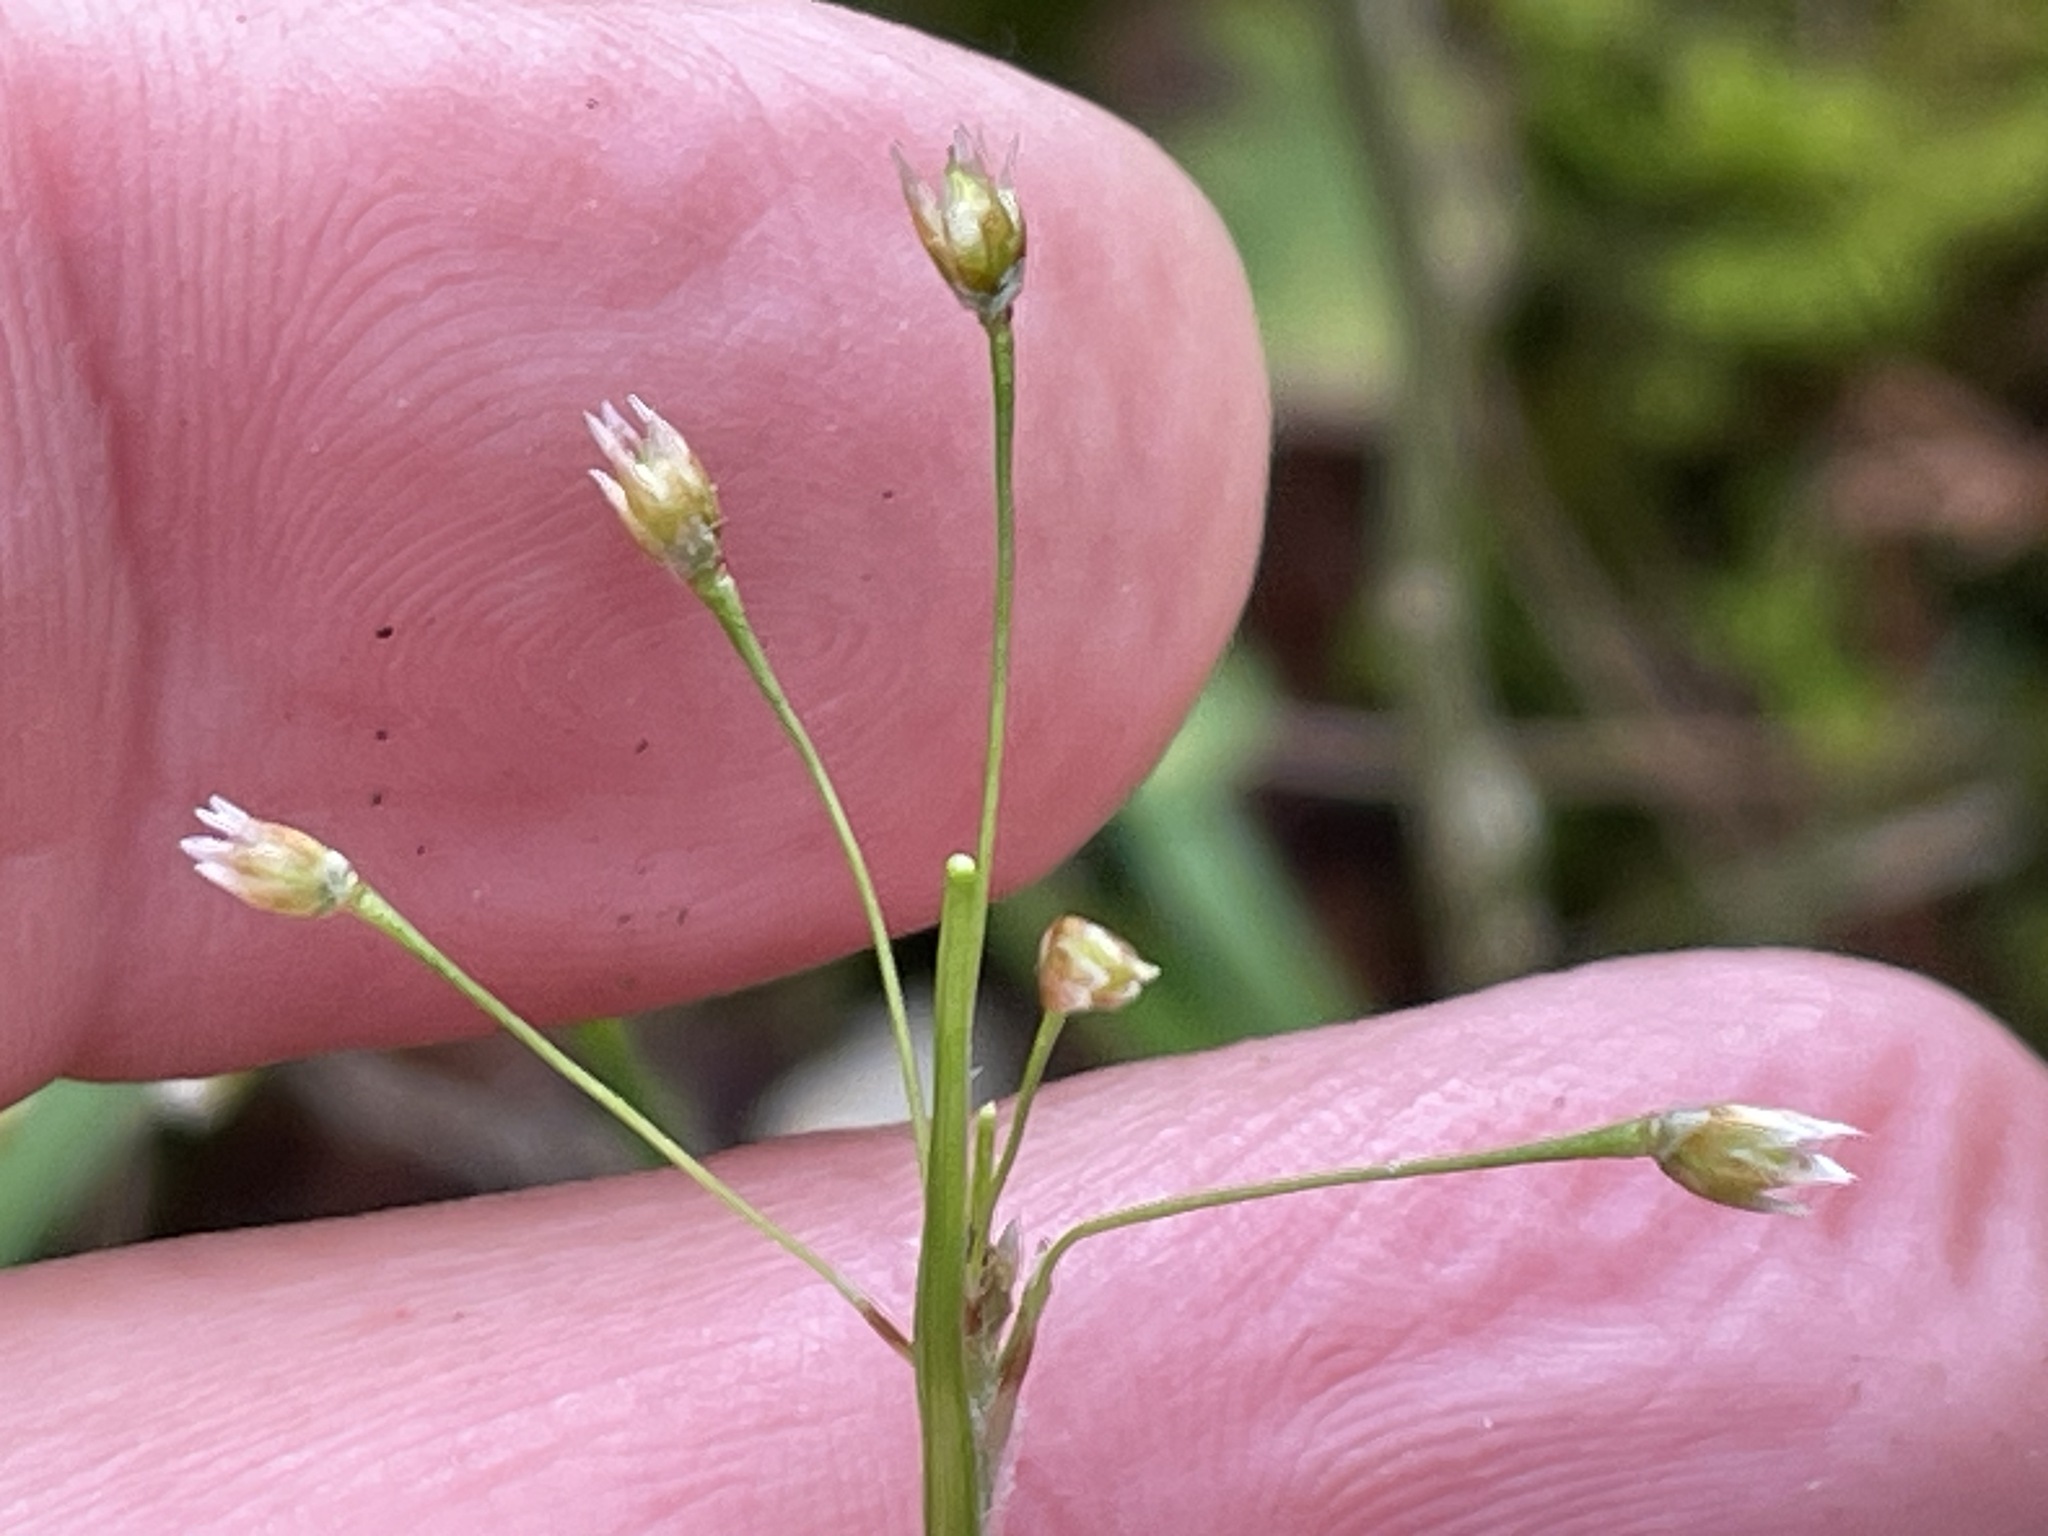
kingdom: Plantae
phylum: Tracheophyta
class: Liliopsida
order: Poales
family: Juncaceae
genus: Luzula
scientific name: Luzula acuminata
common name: Hairy woodrush
